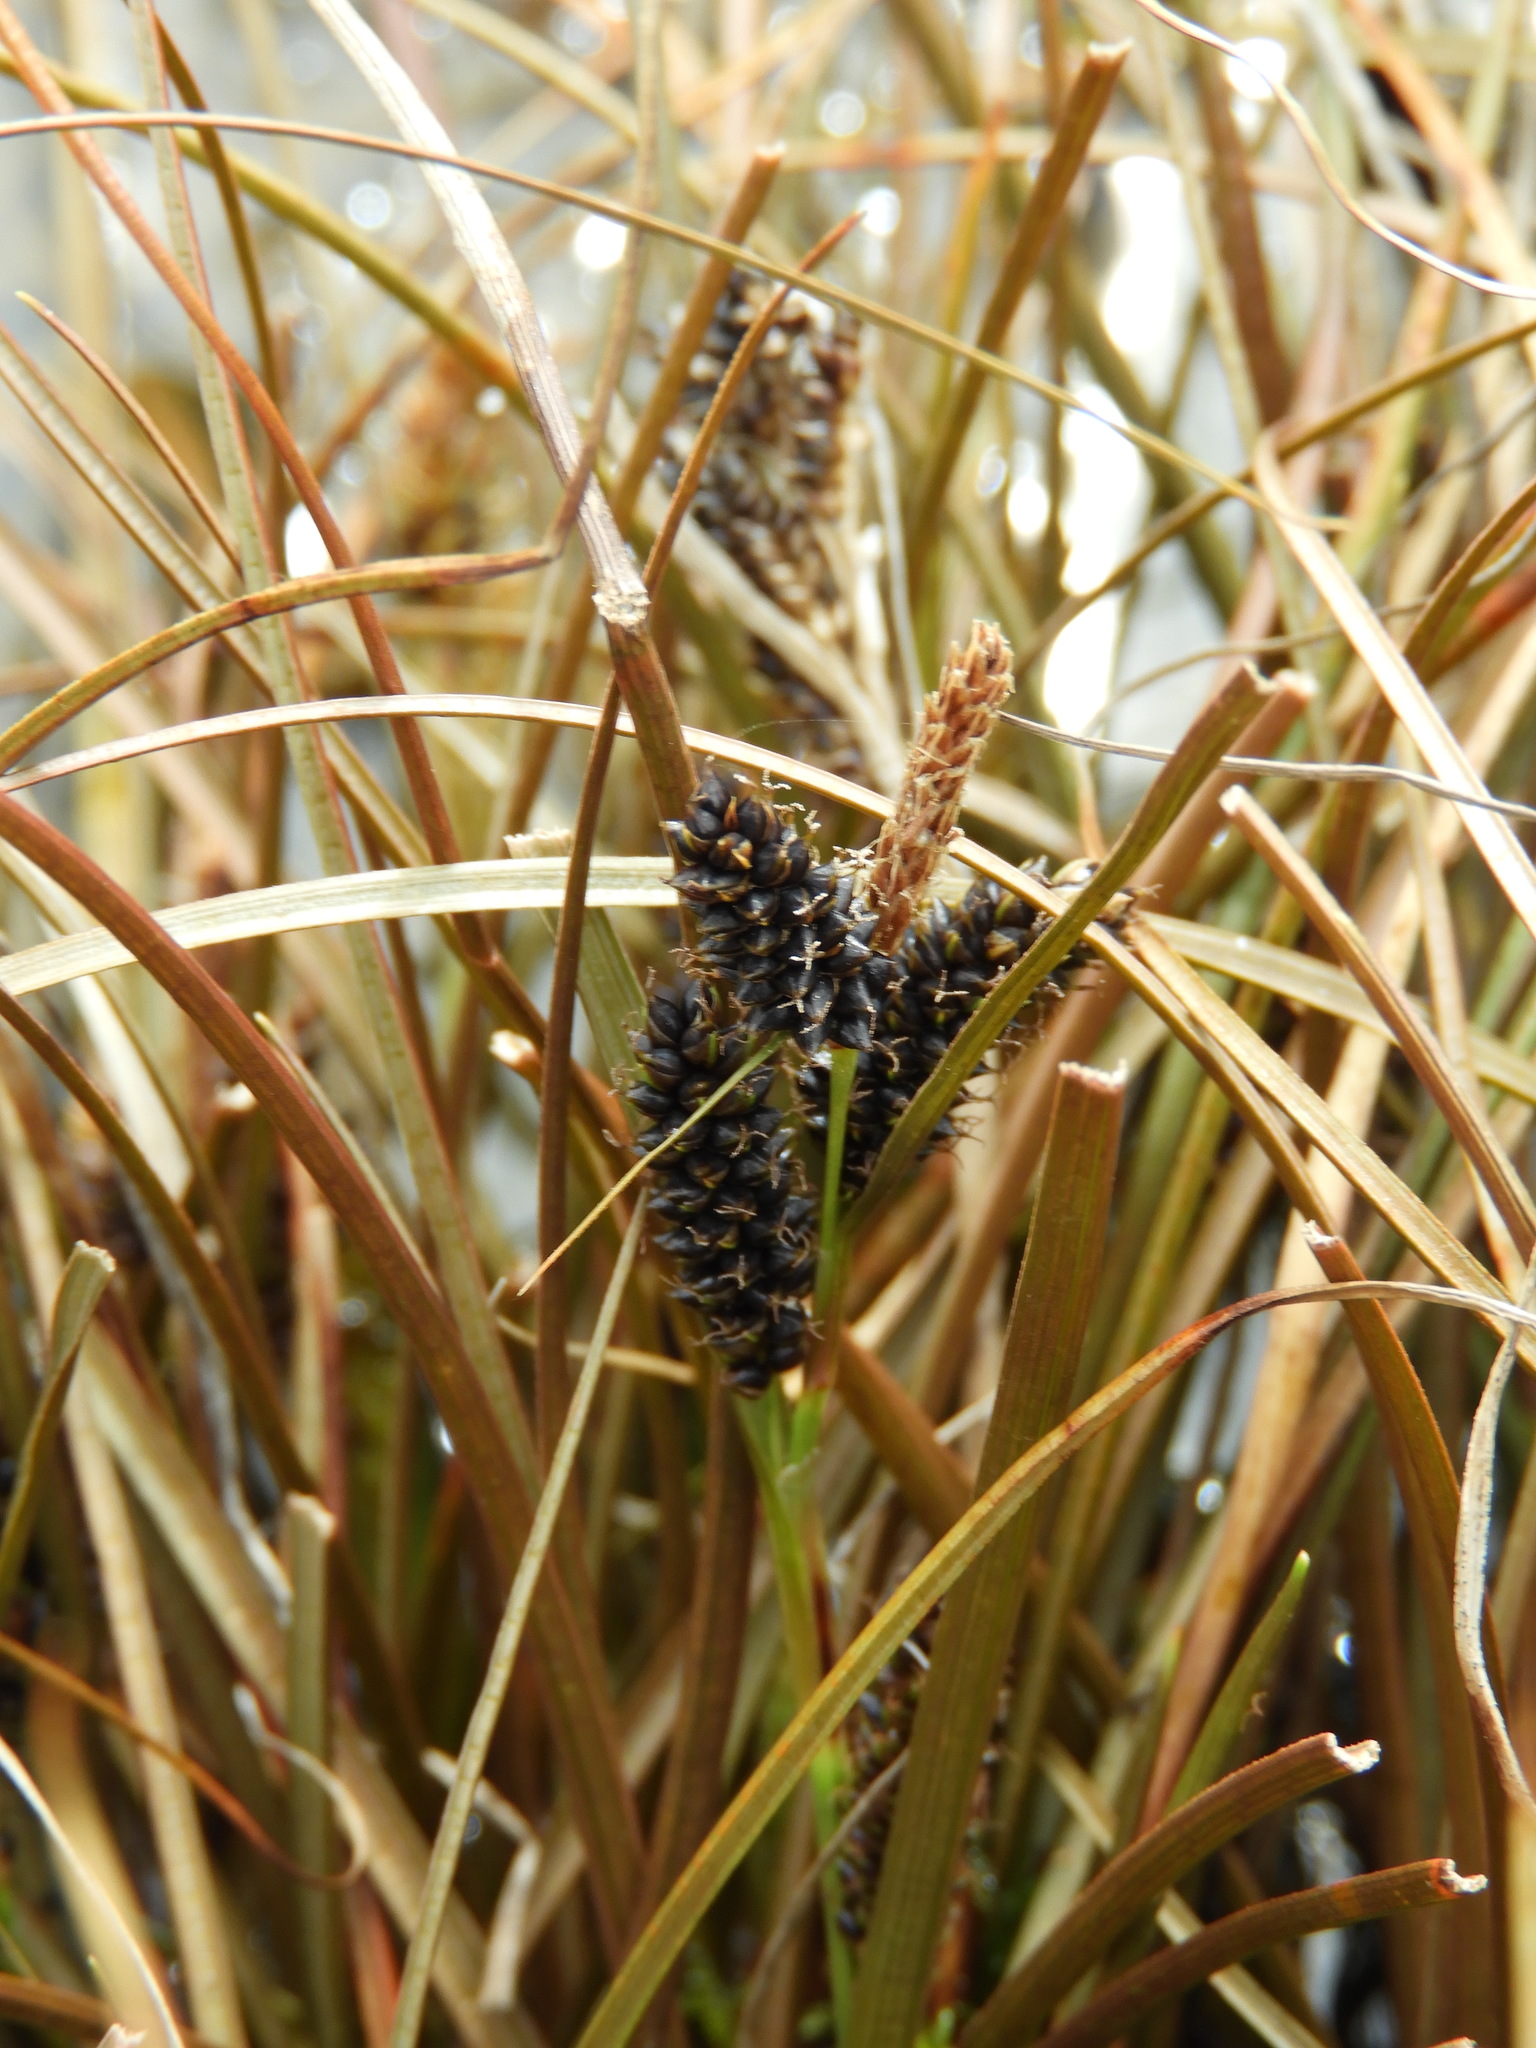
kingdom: Plantae
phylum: Tracheophyta
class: Liliopsida
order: Poales
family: Cyperaceae
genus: Carex
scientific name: Carex petriei
